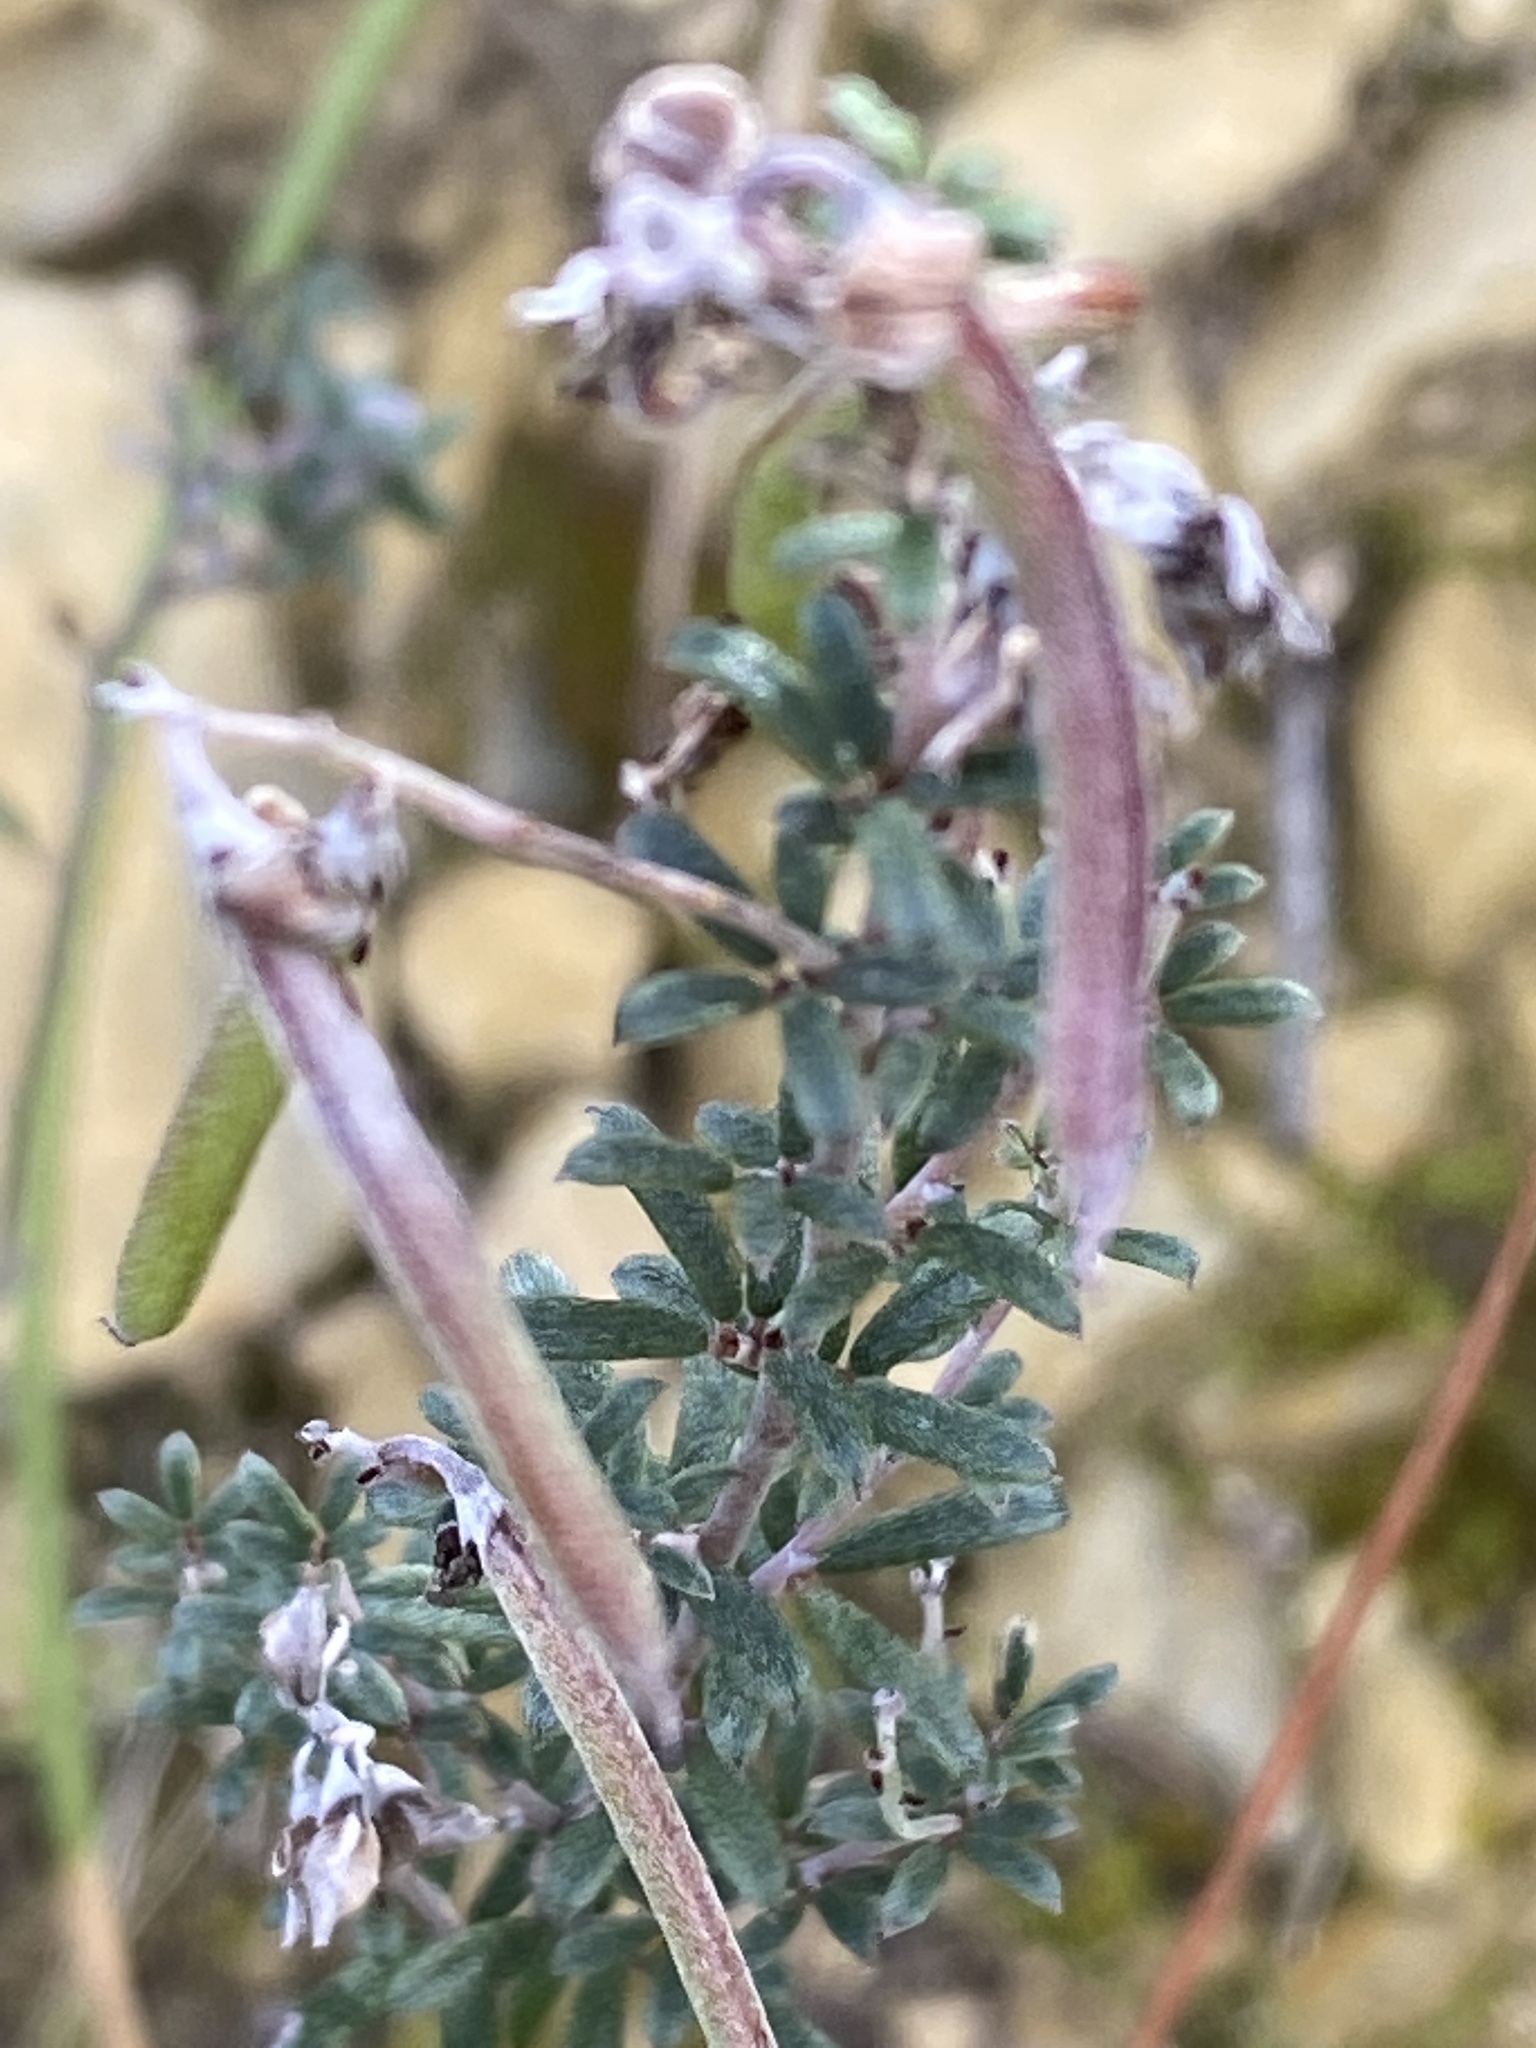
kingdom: Plantae
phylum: Tracheophyta
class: Magnoliopsida
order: Fabales
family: Fabaceae
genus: Indigofera
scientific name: Indigofera
